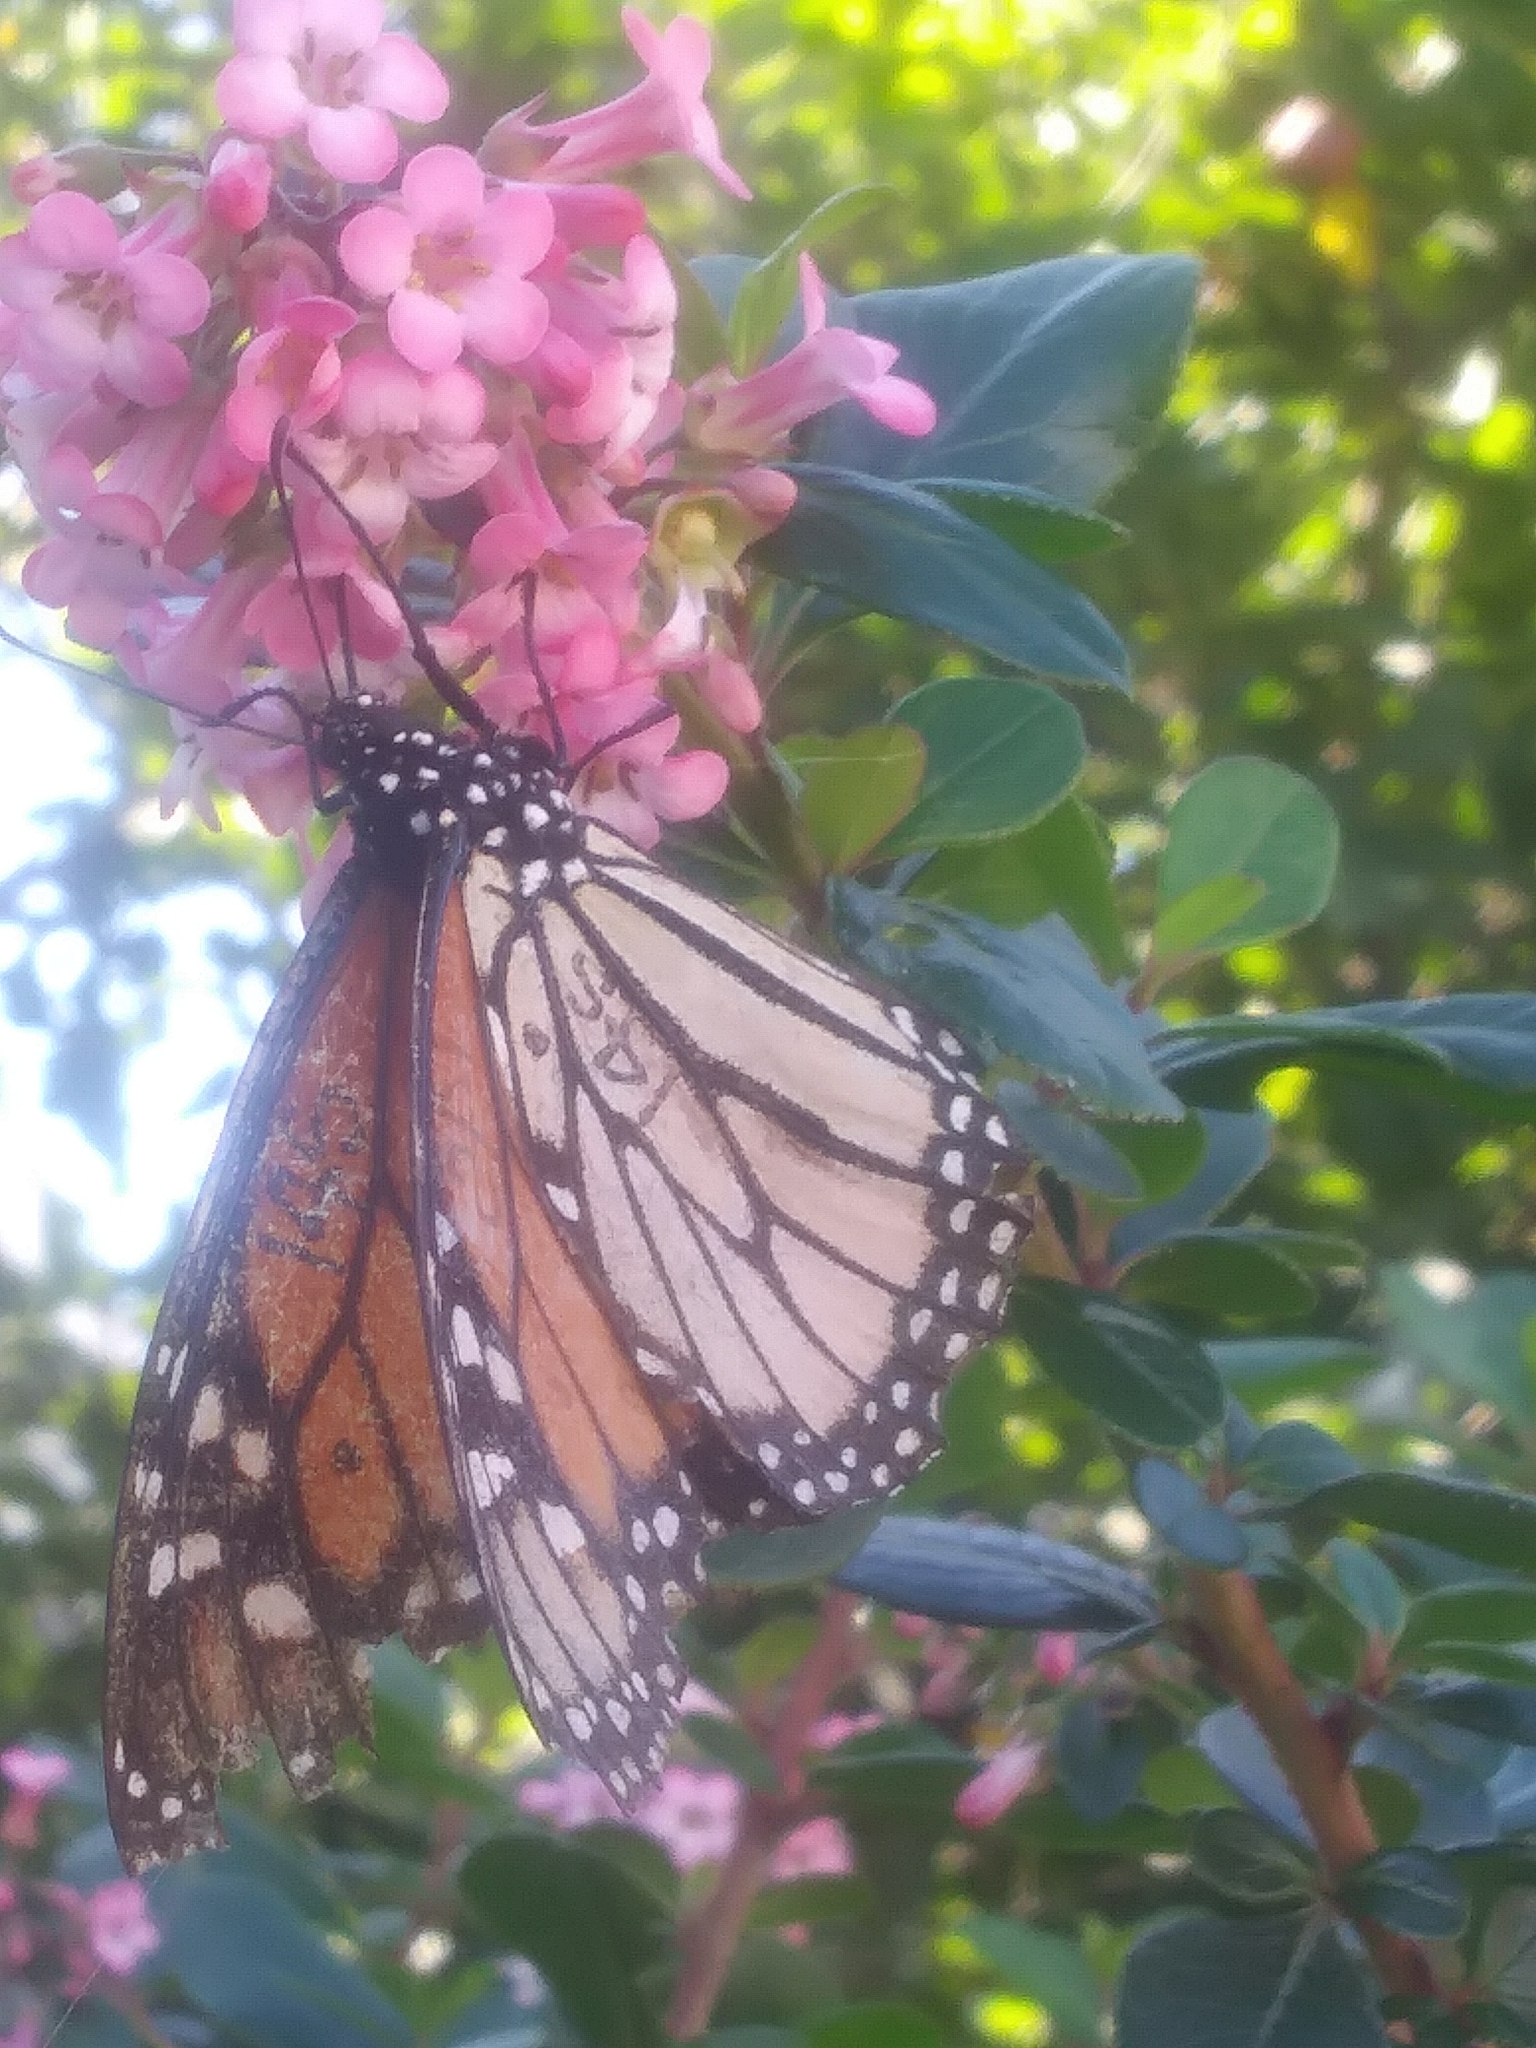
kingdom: Animalia
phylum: Arthropoda
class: Insecta
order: Lepidoptera
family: Nymphalidae
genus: Danaus
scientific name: Danaus plexippus
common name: Monarch
